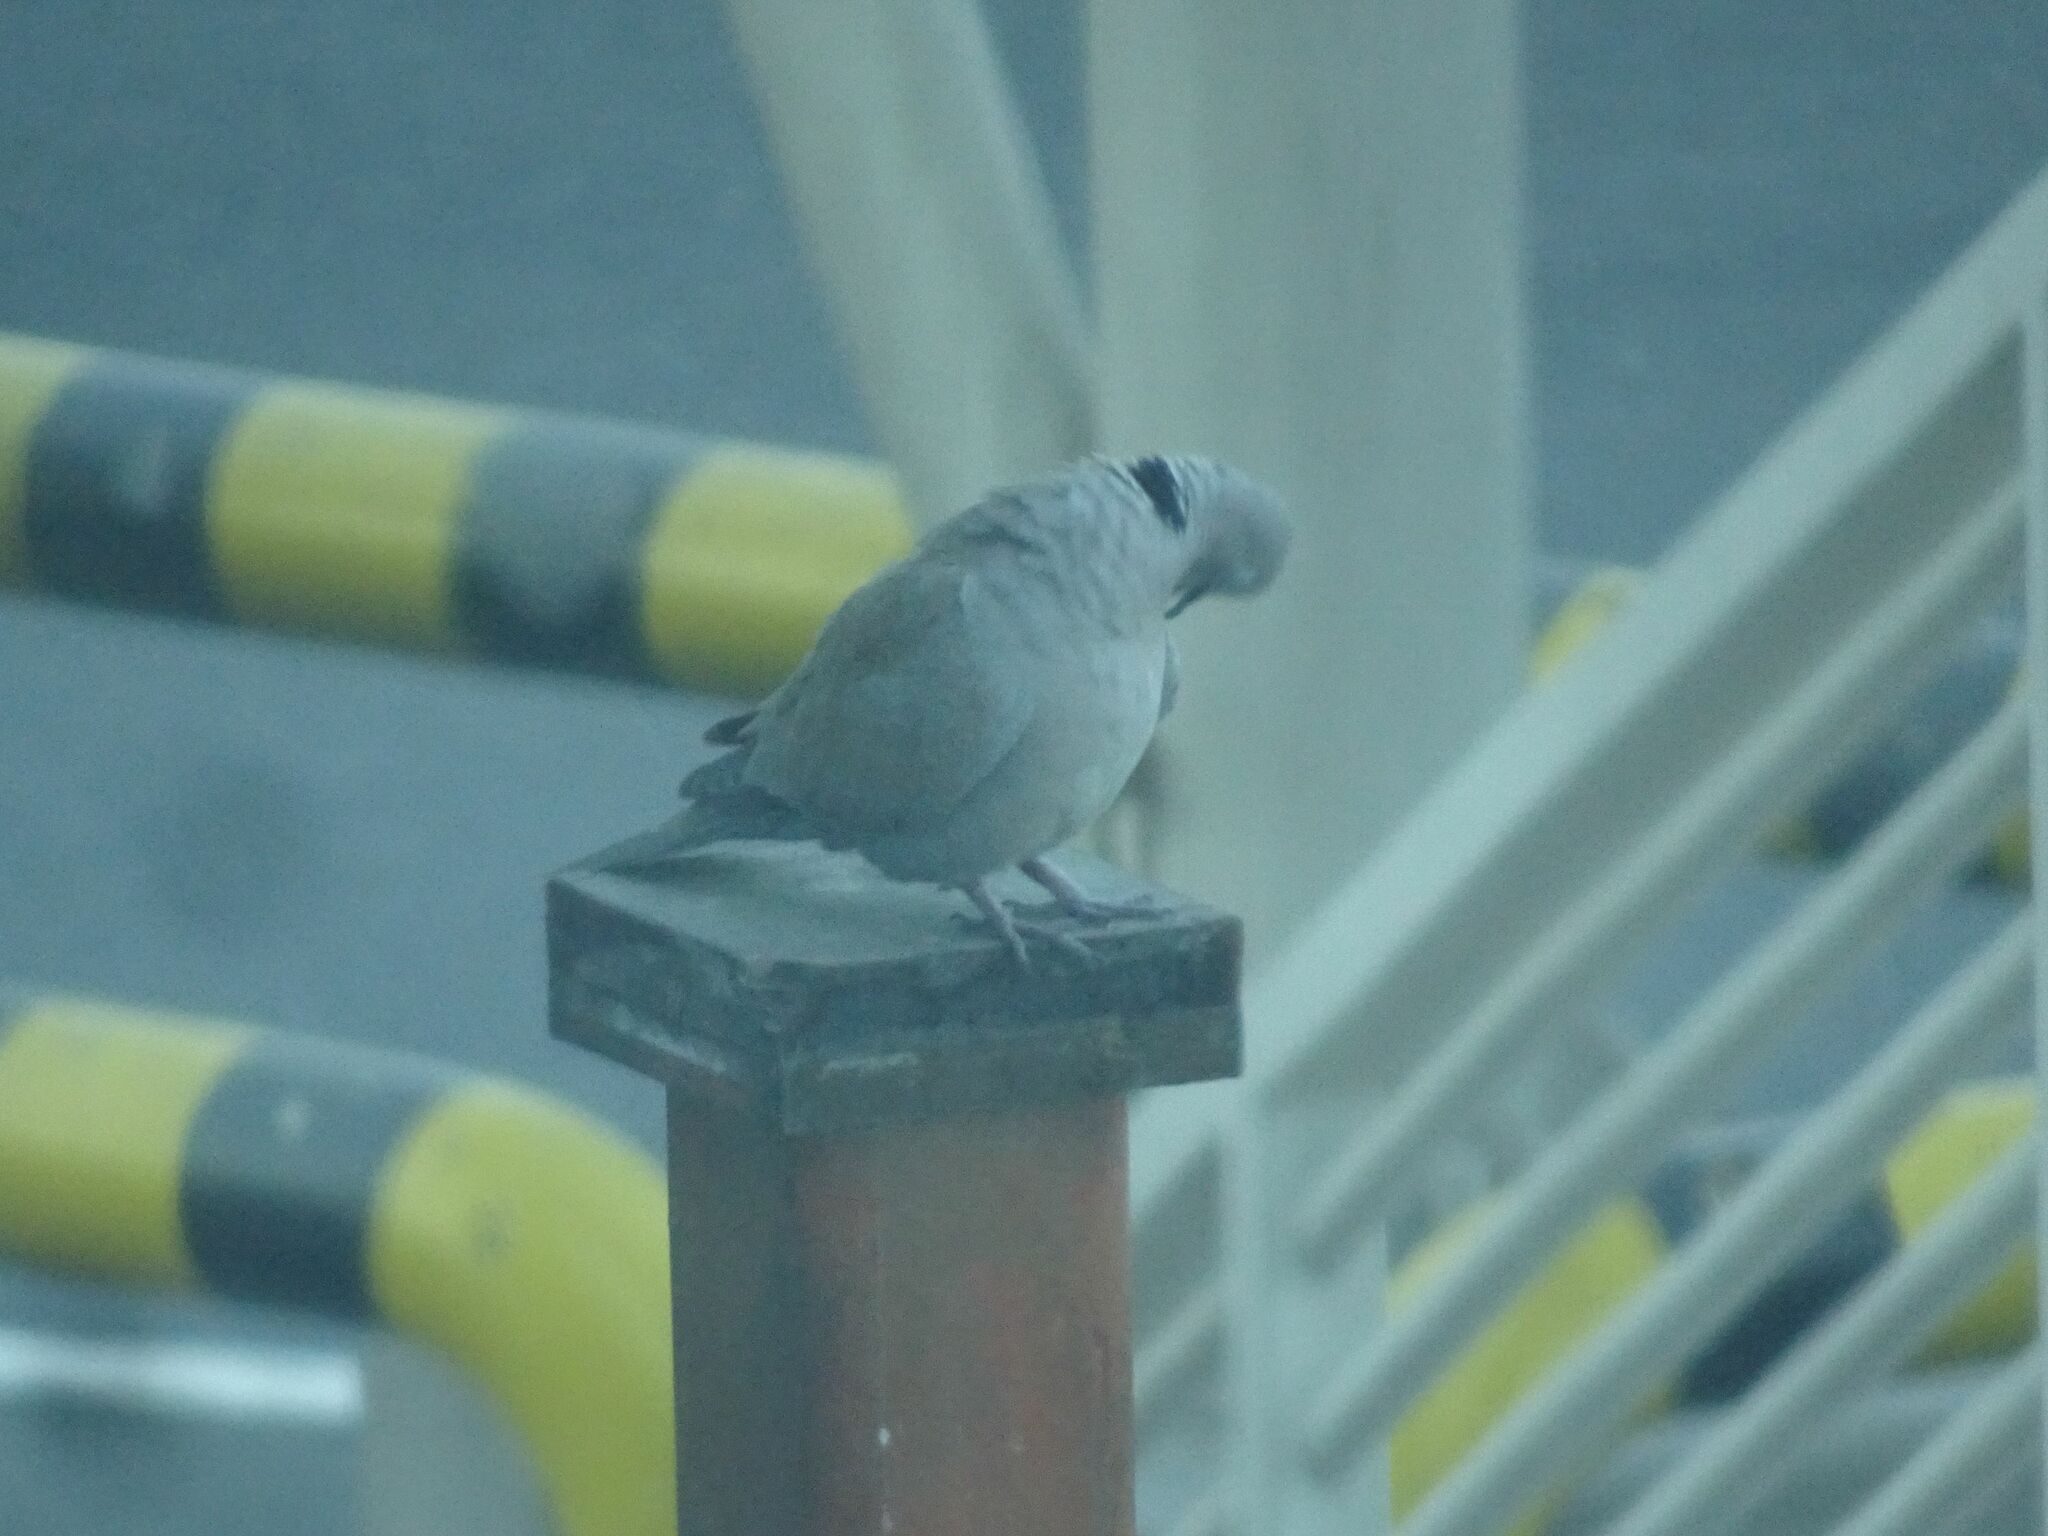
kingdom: Animalia
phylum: Chordata
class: Aves
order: Columbiformes
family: Columbidae
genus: Streptopelia
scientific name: Streptopelia decaocto
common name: Eurasian collared dove
